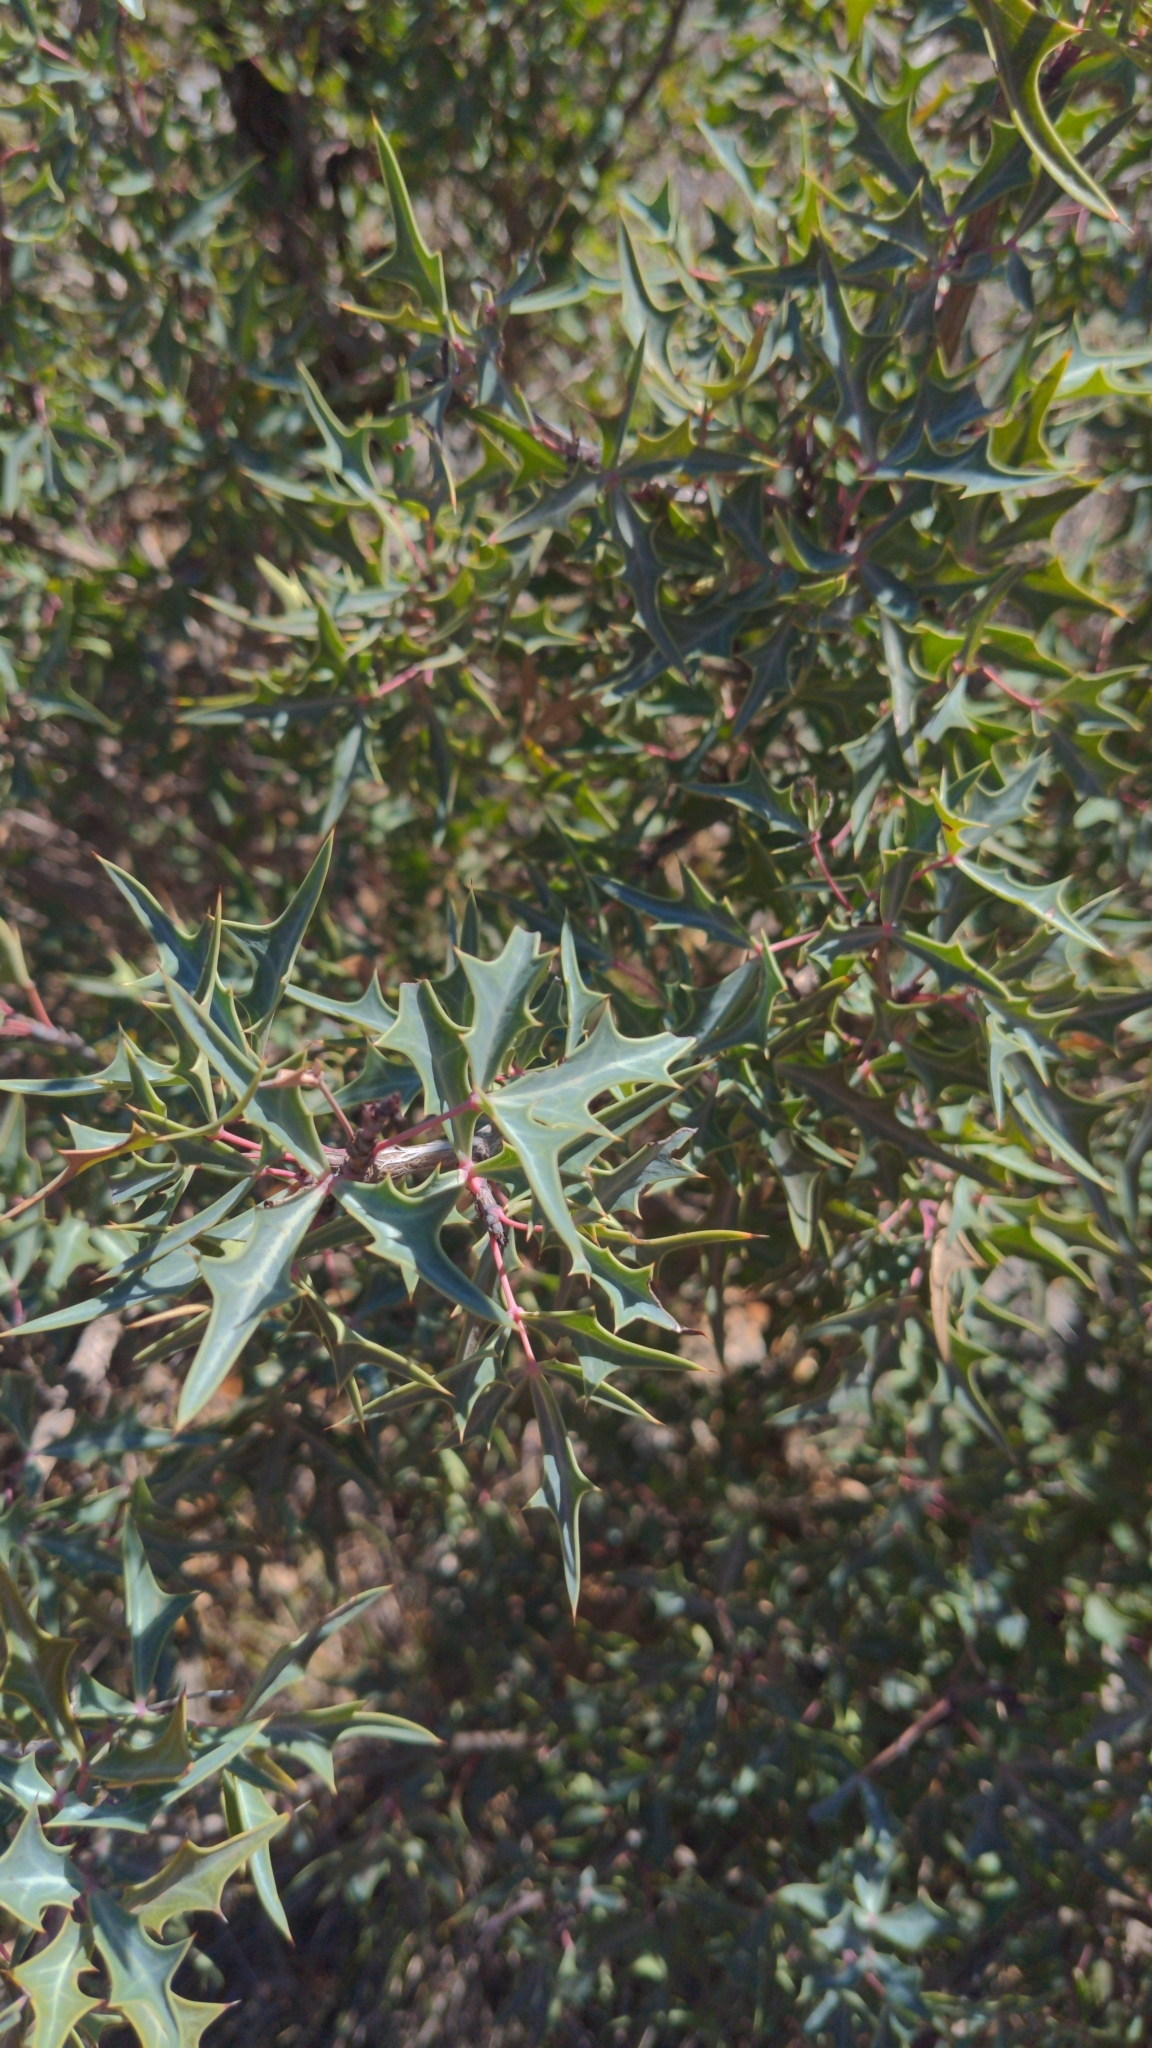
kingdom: Plantae
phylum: Tracheophyta
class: Magnoliopsida
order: Ranunculales
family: Berberidaceae
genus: Alloberberis
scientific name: Alloberberis trifoliolata
